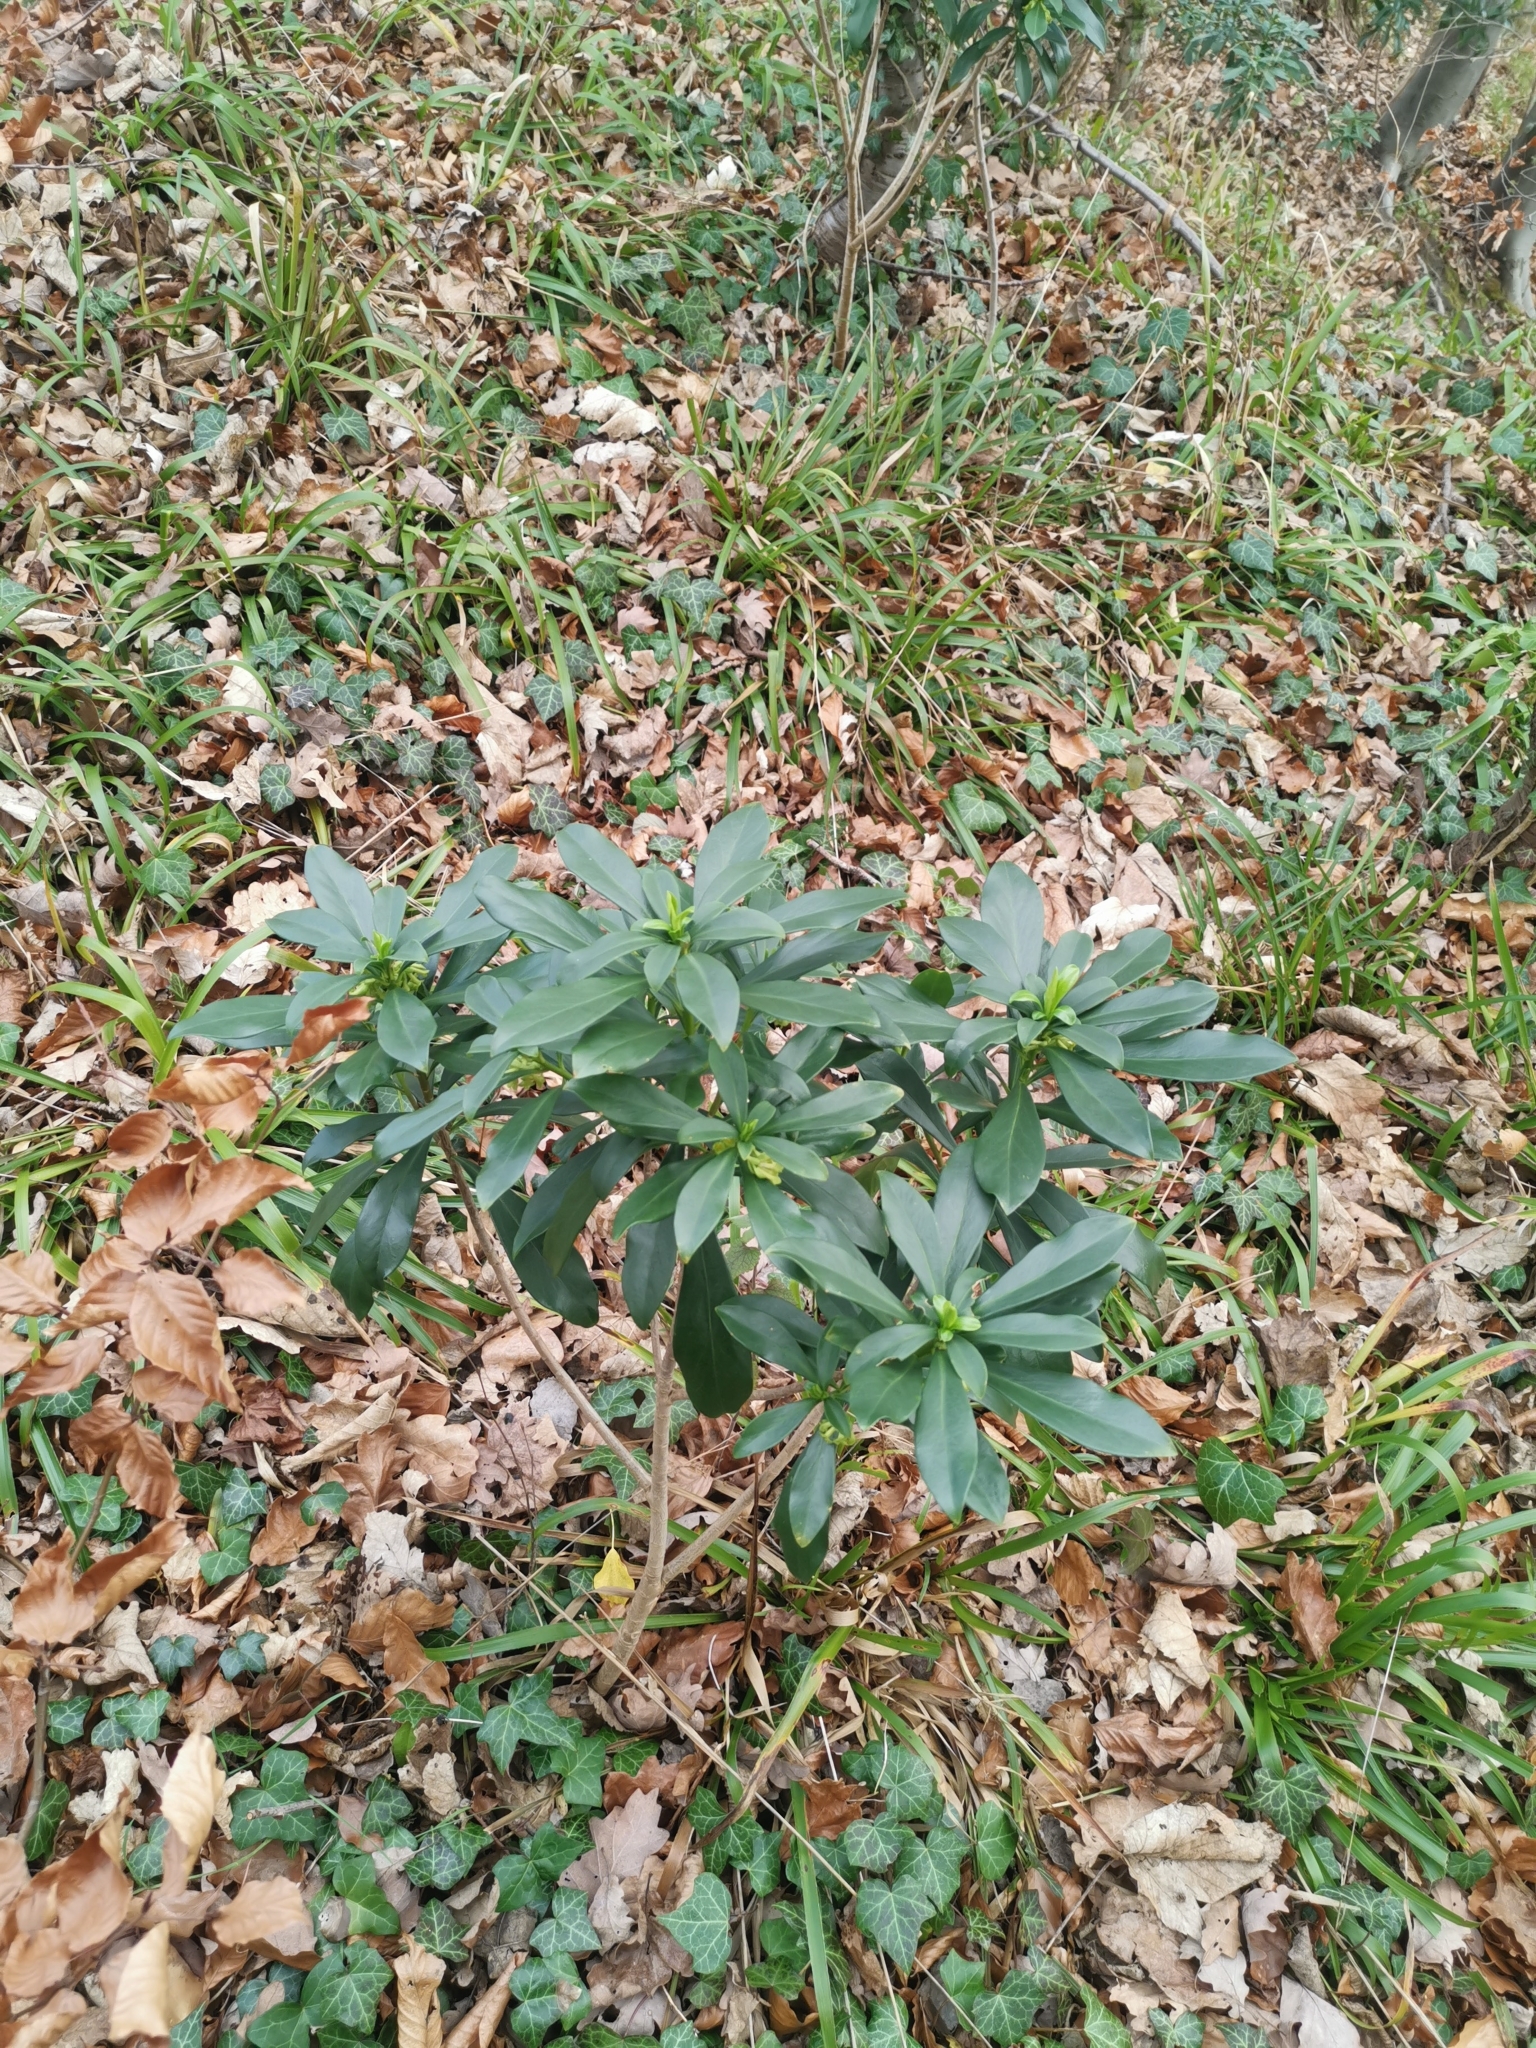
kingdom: Plantae
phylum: Tracheophyta
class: Magnoliopsida
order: Ericales
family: Ericaceae
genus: Rhododendron
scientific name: Rhododendron ponticum
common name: Rhododendron
